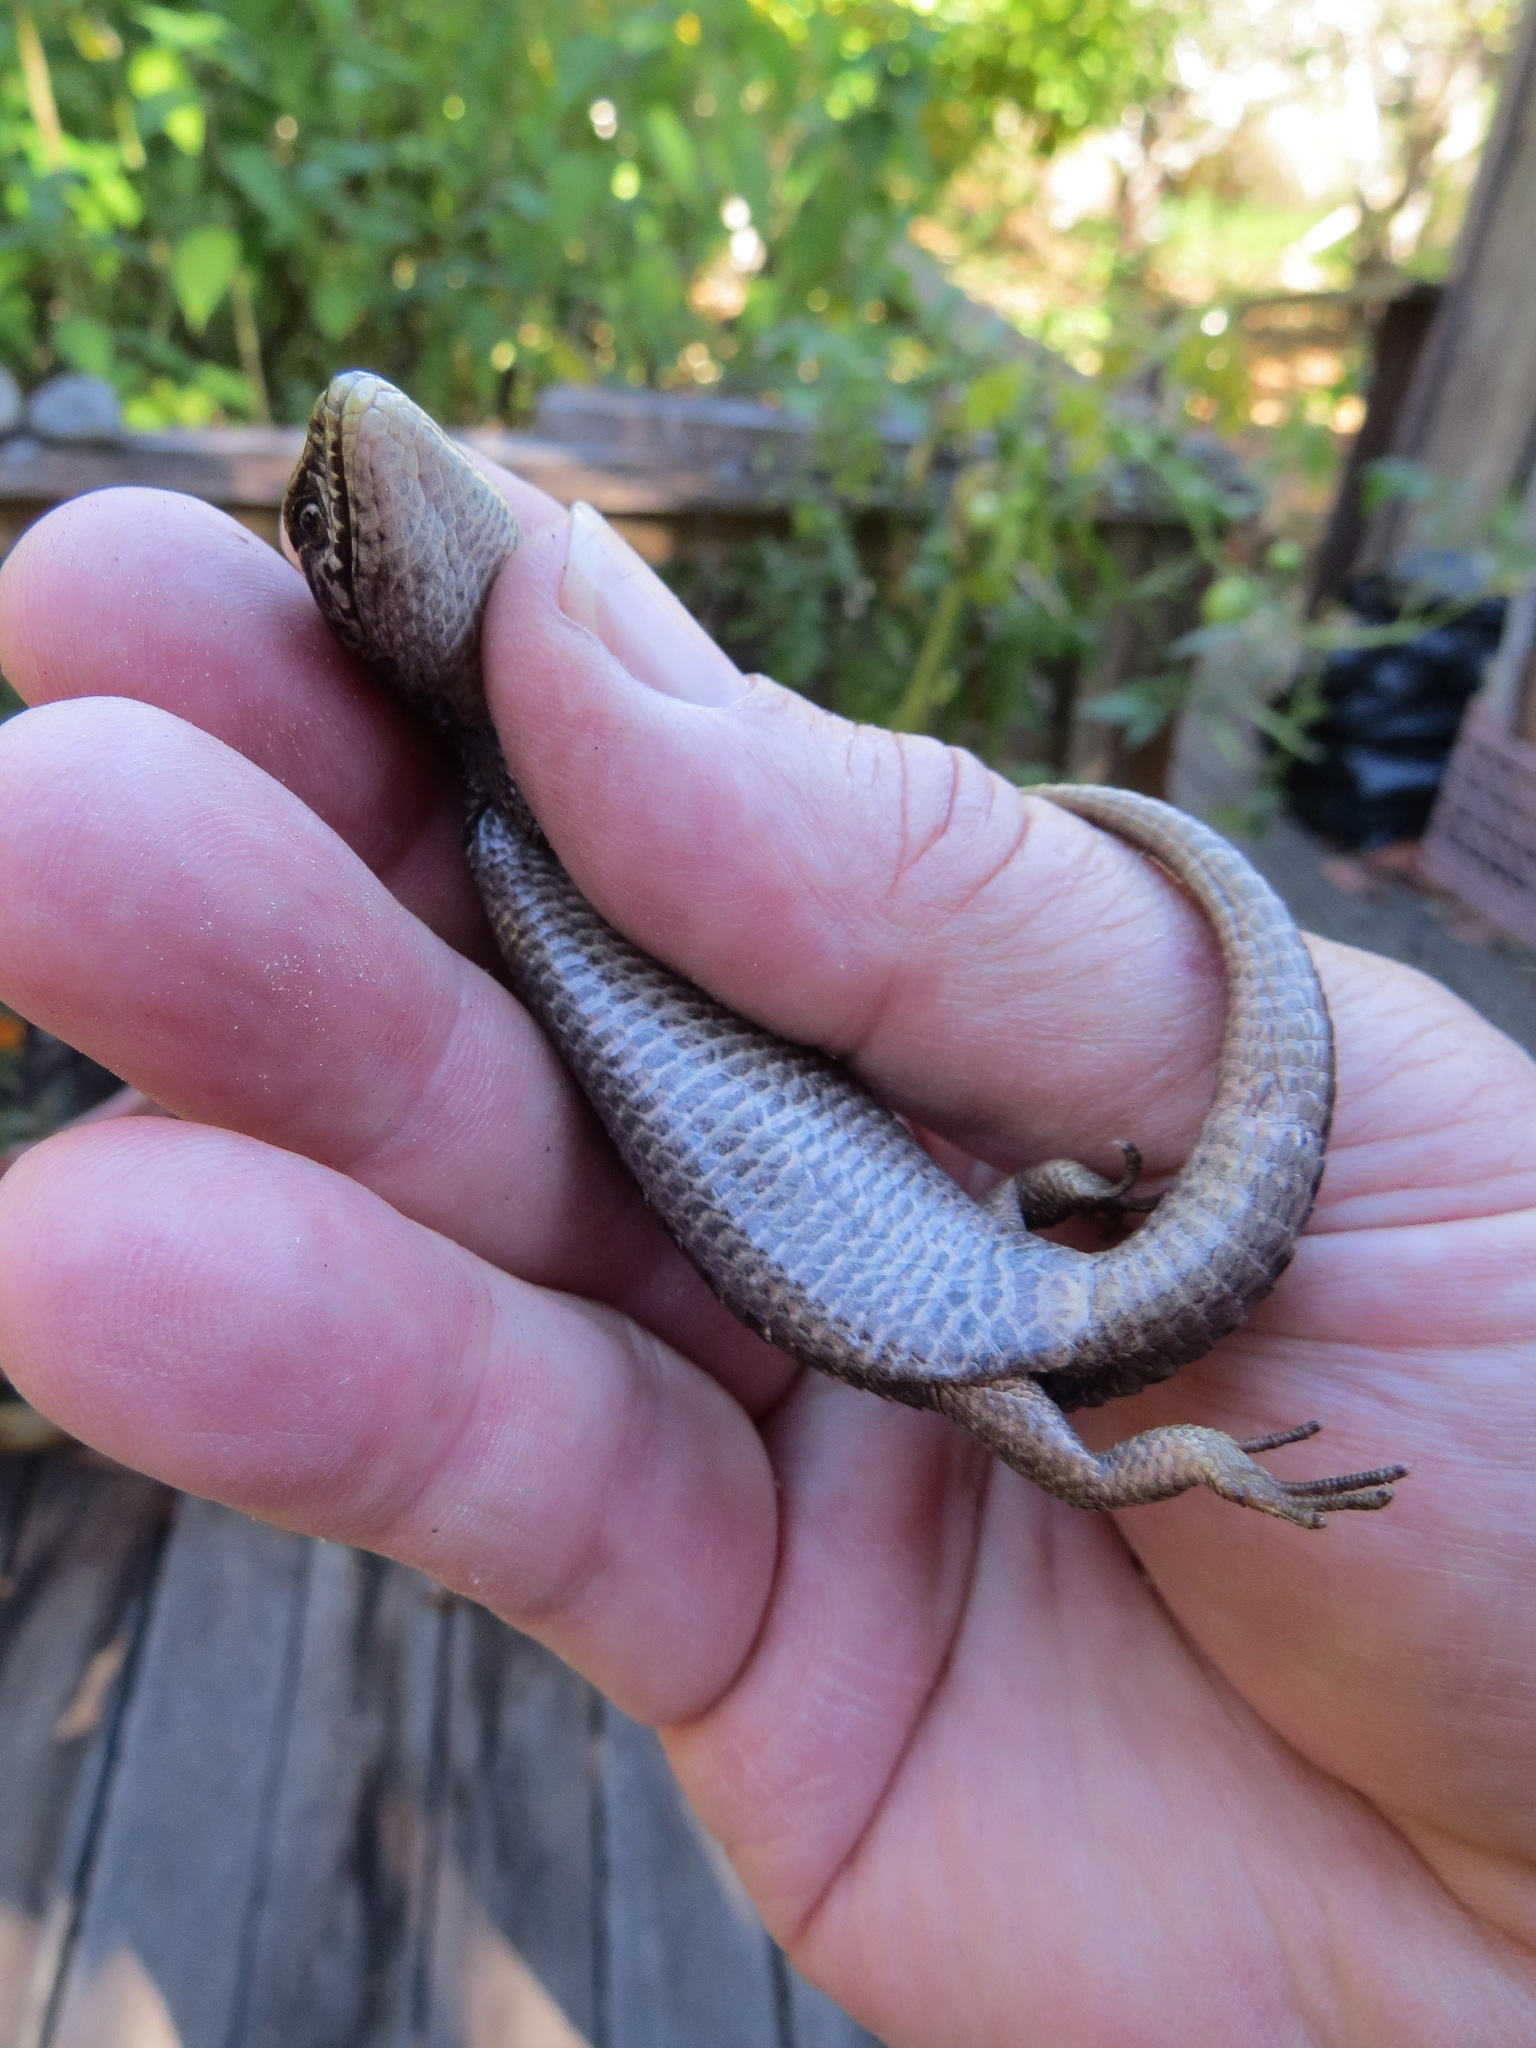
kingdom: Animalia
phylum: Chordata
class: Squamata
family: Anguidae
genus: Elgaria
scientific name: Elgaria coerulea
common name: Northern alligator lizard
